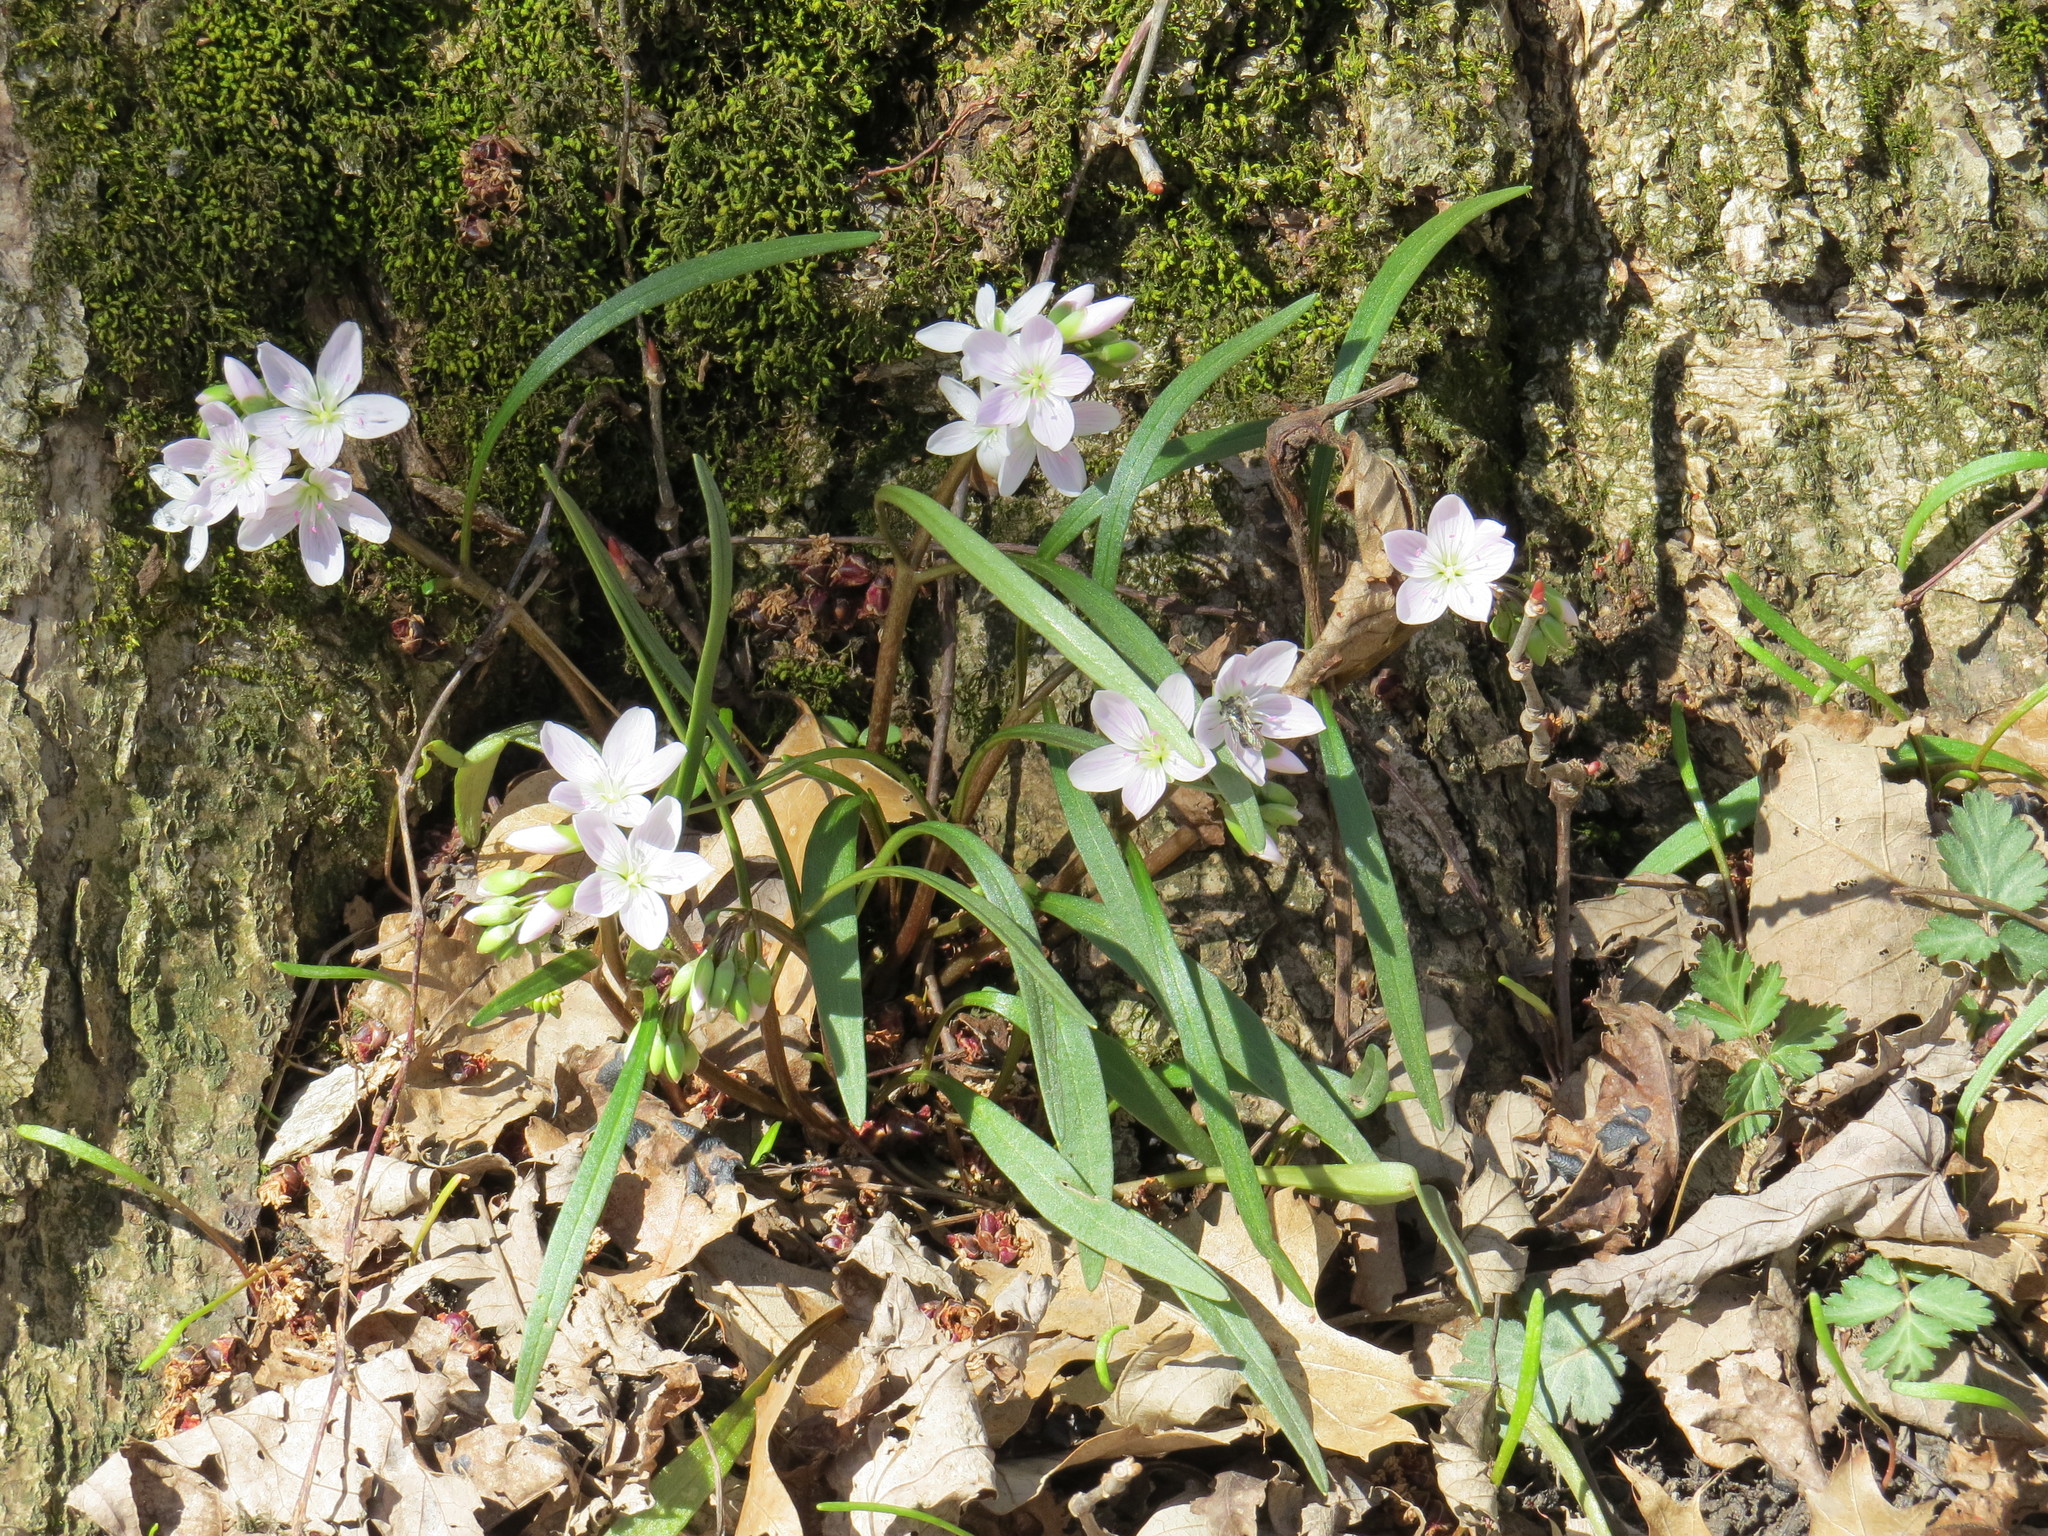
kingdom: Plantae
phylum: Tracheophyta
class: Magnoliopsida
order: Caryophyllales
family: Montiaceae
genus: Claytonia
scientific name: Claytonia virginica
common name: Virginia springbeauty
